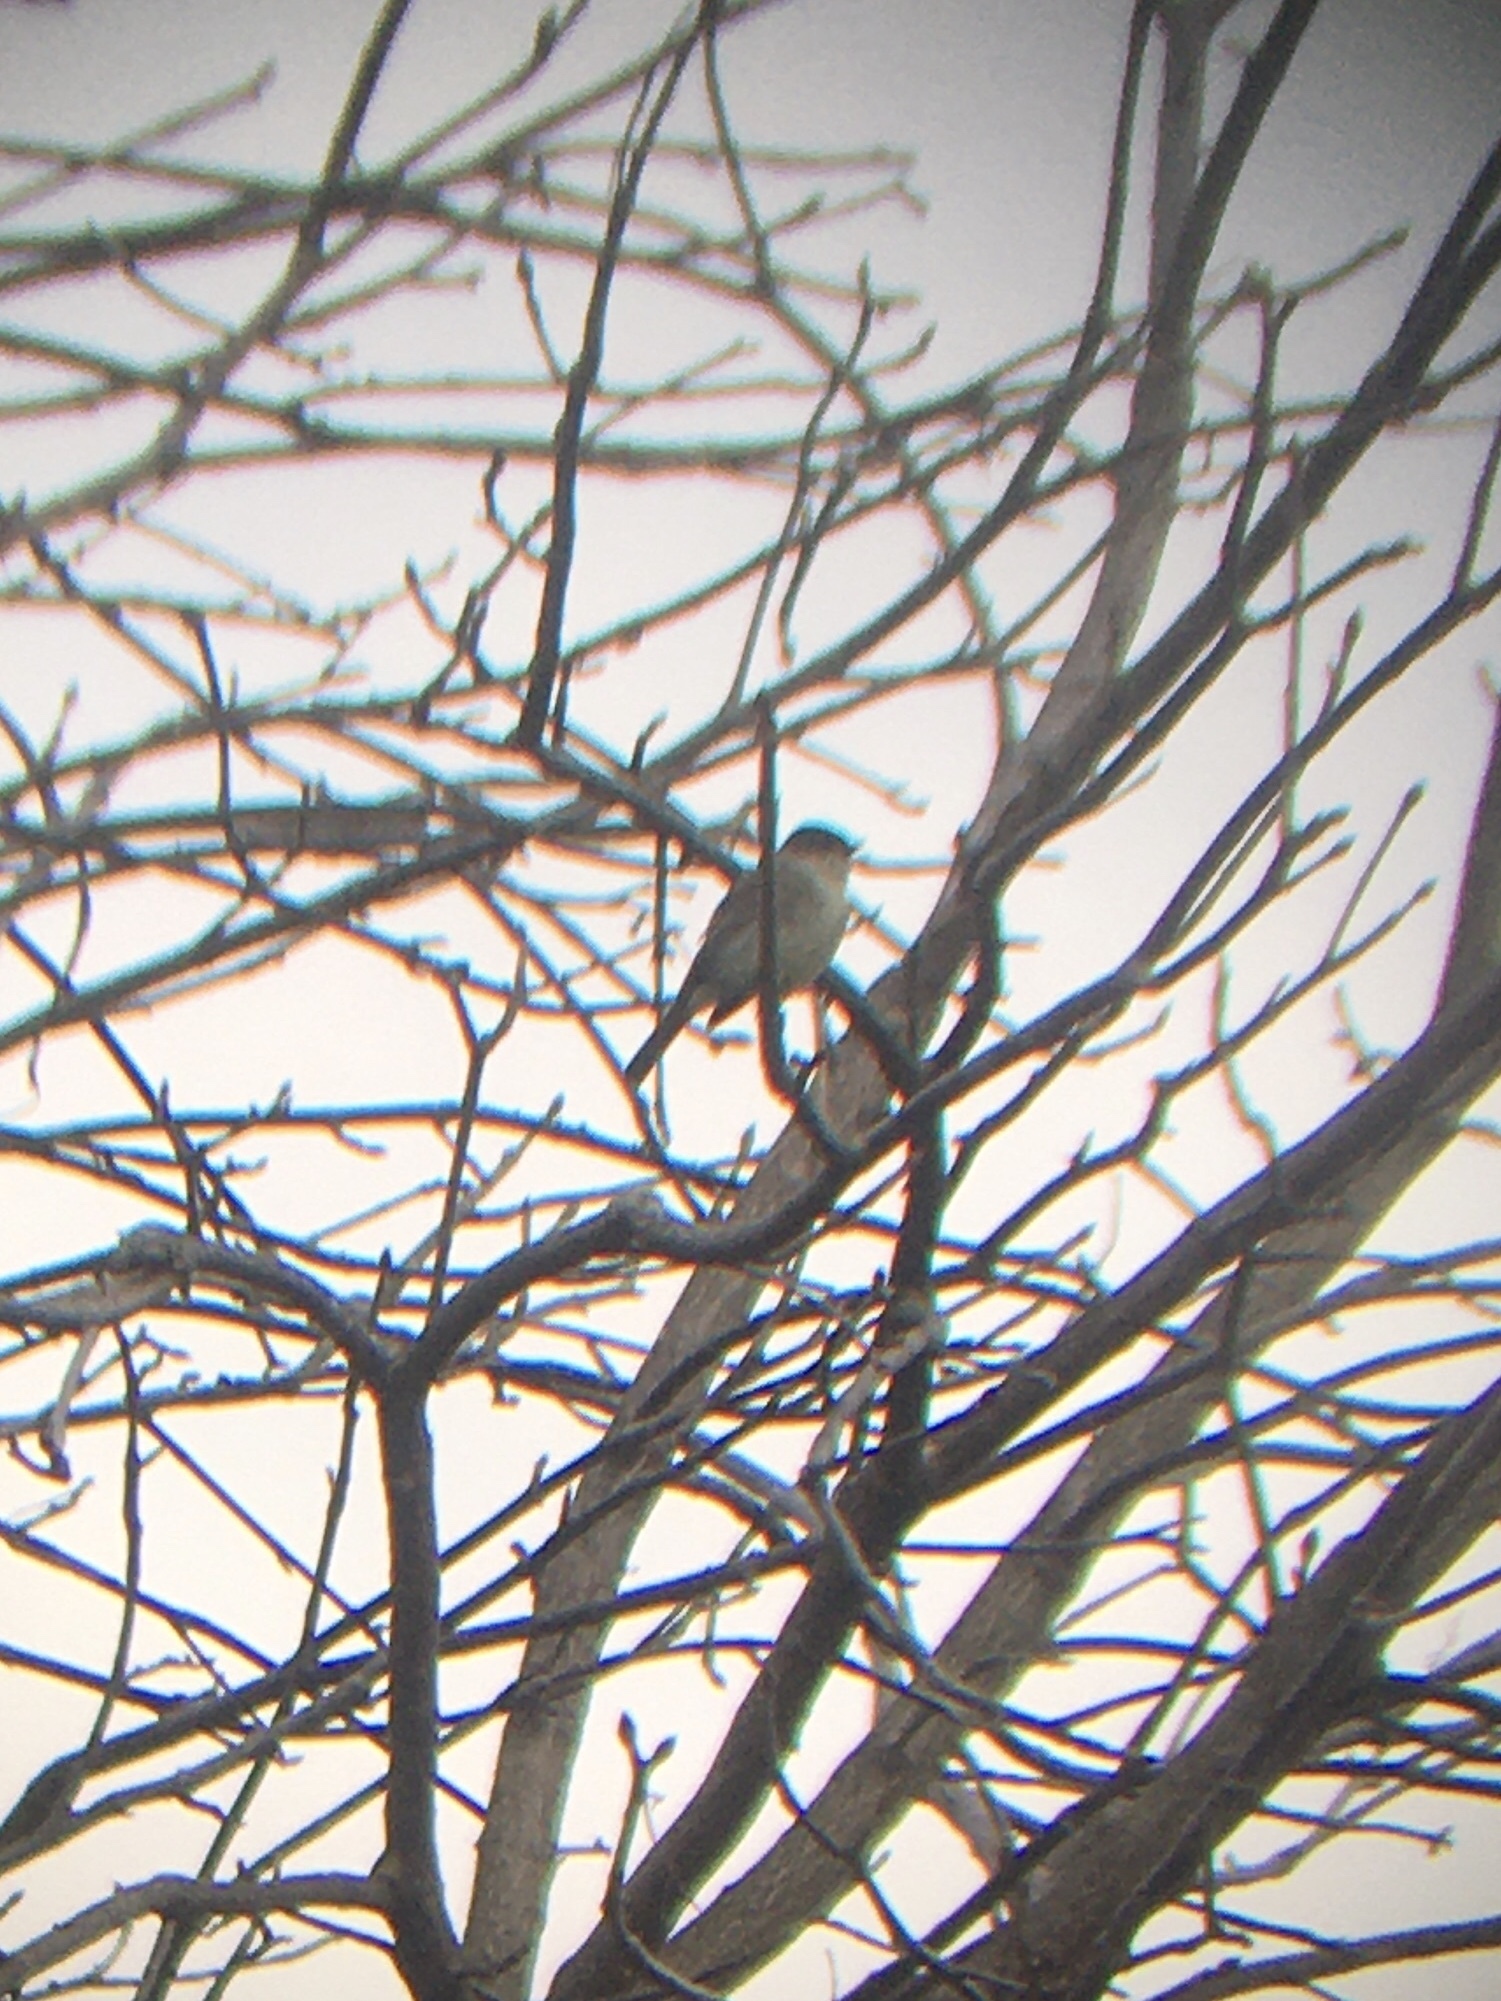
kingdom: Animalia
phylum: Chordata
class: Aves
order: Passeriformes
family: Tyrannidae
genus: Sayornis
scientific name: Sayornis phoebe
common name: Eastern phoebe
